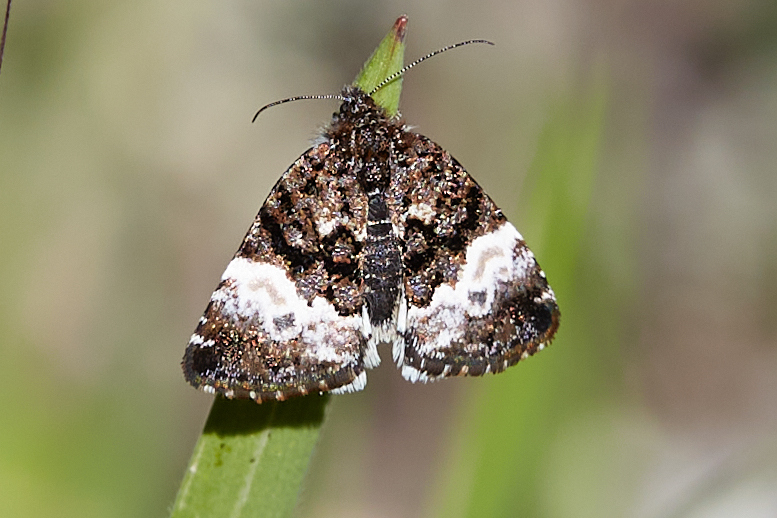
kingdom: Animalia
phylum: Arthropoda
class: Insecta
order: Lepidoptera
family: Noctuidae
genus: Annaphila
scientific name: Annaphila diva
